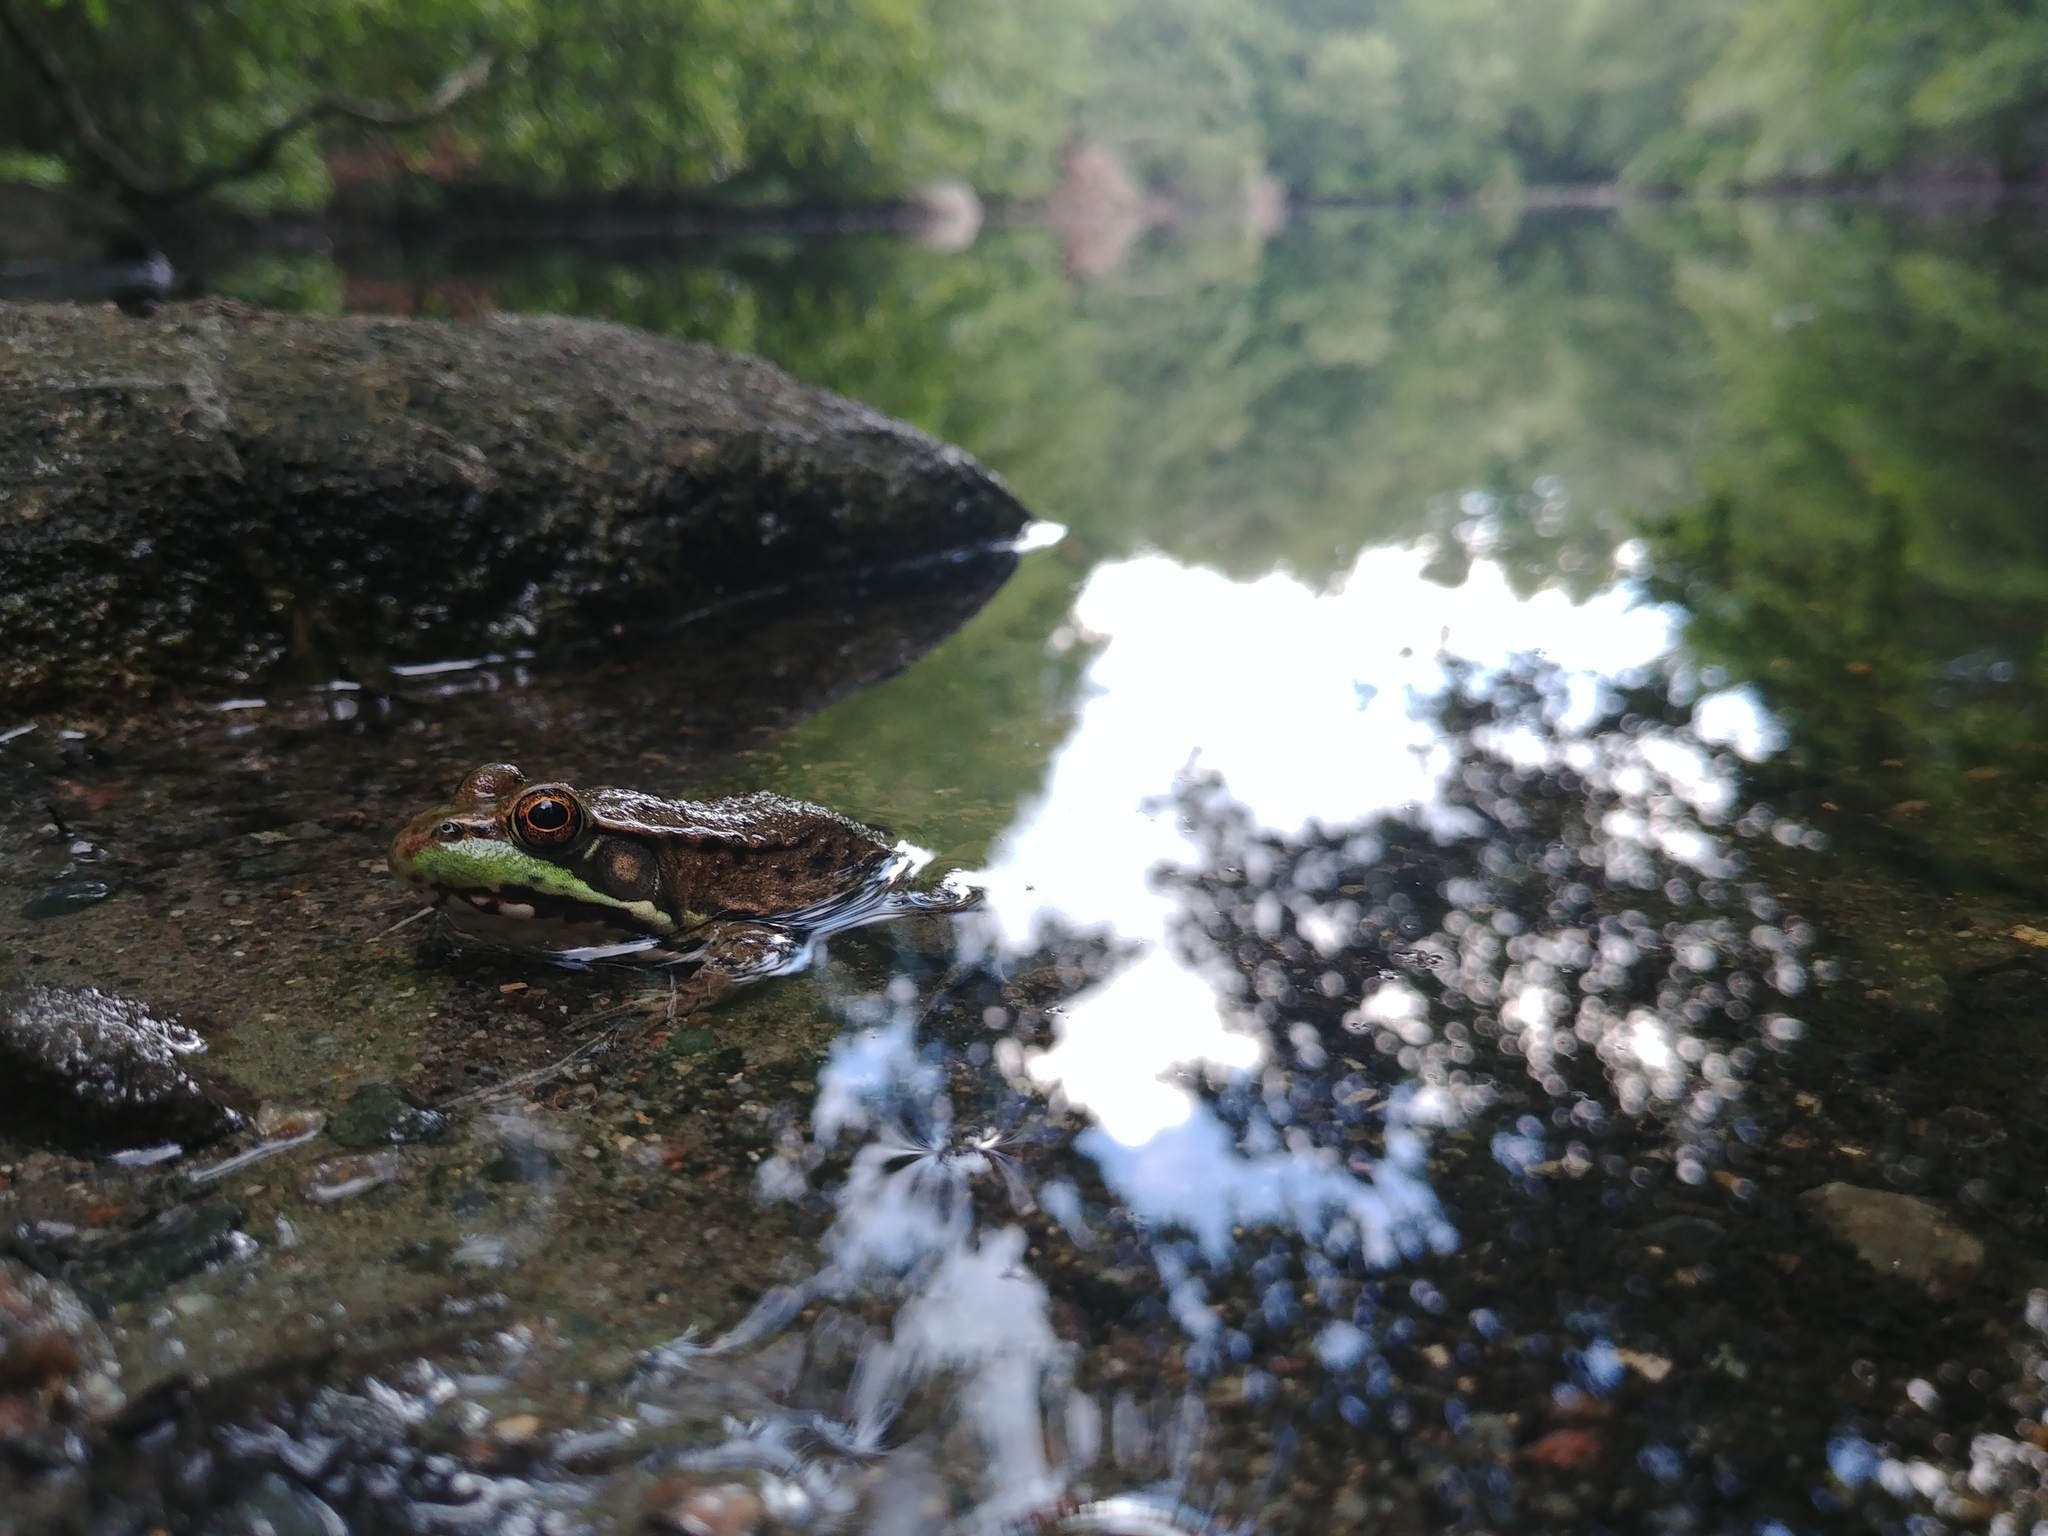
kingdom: Animalia
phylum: Chordata
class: Amphibia
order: Anura
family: Ranidae
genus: Lithobates
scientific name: Lithobates clamitans
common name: Green frog
